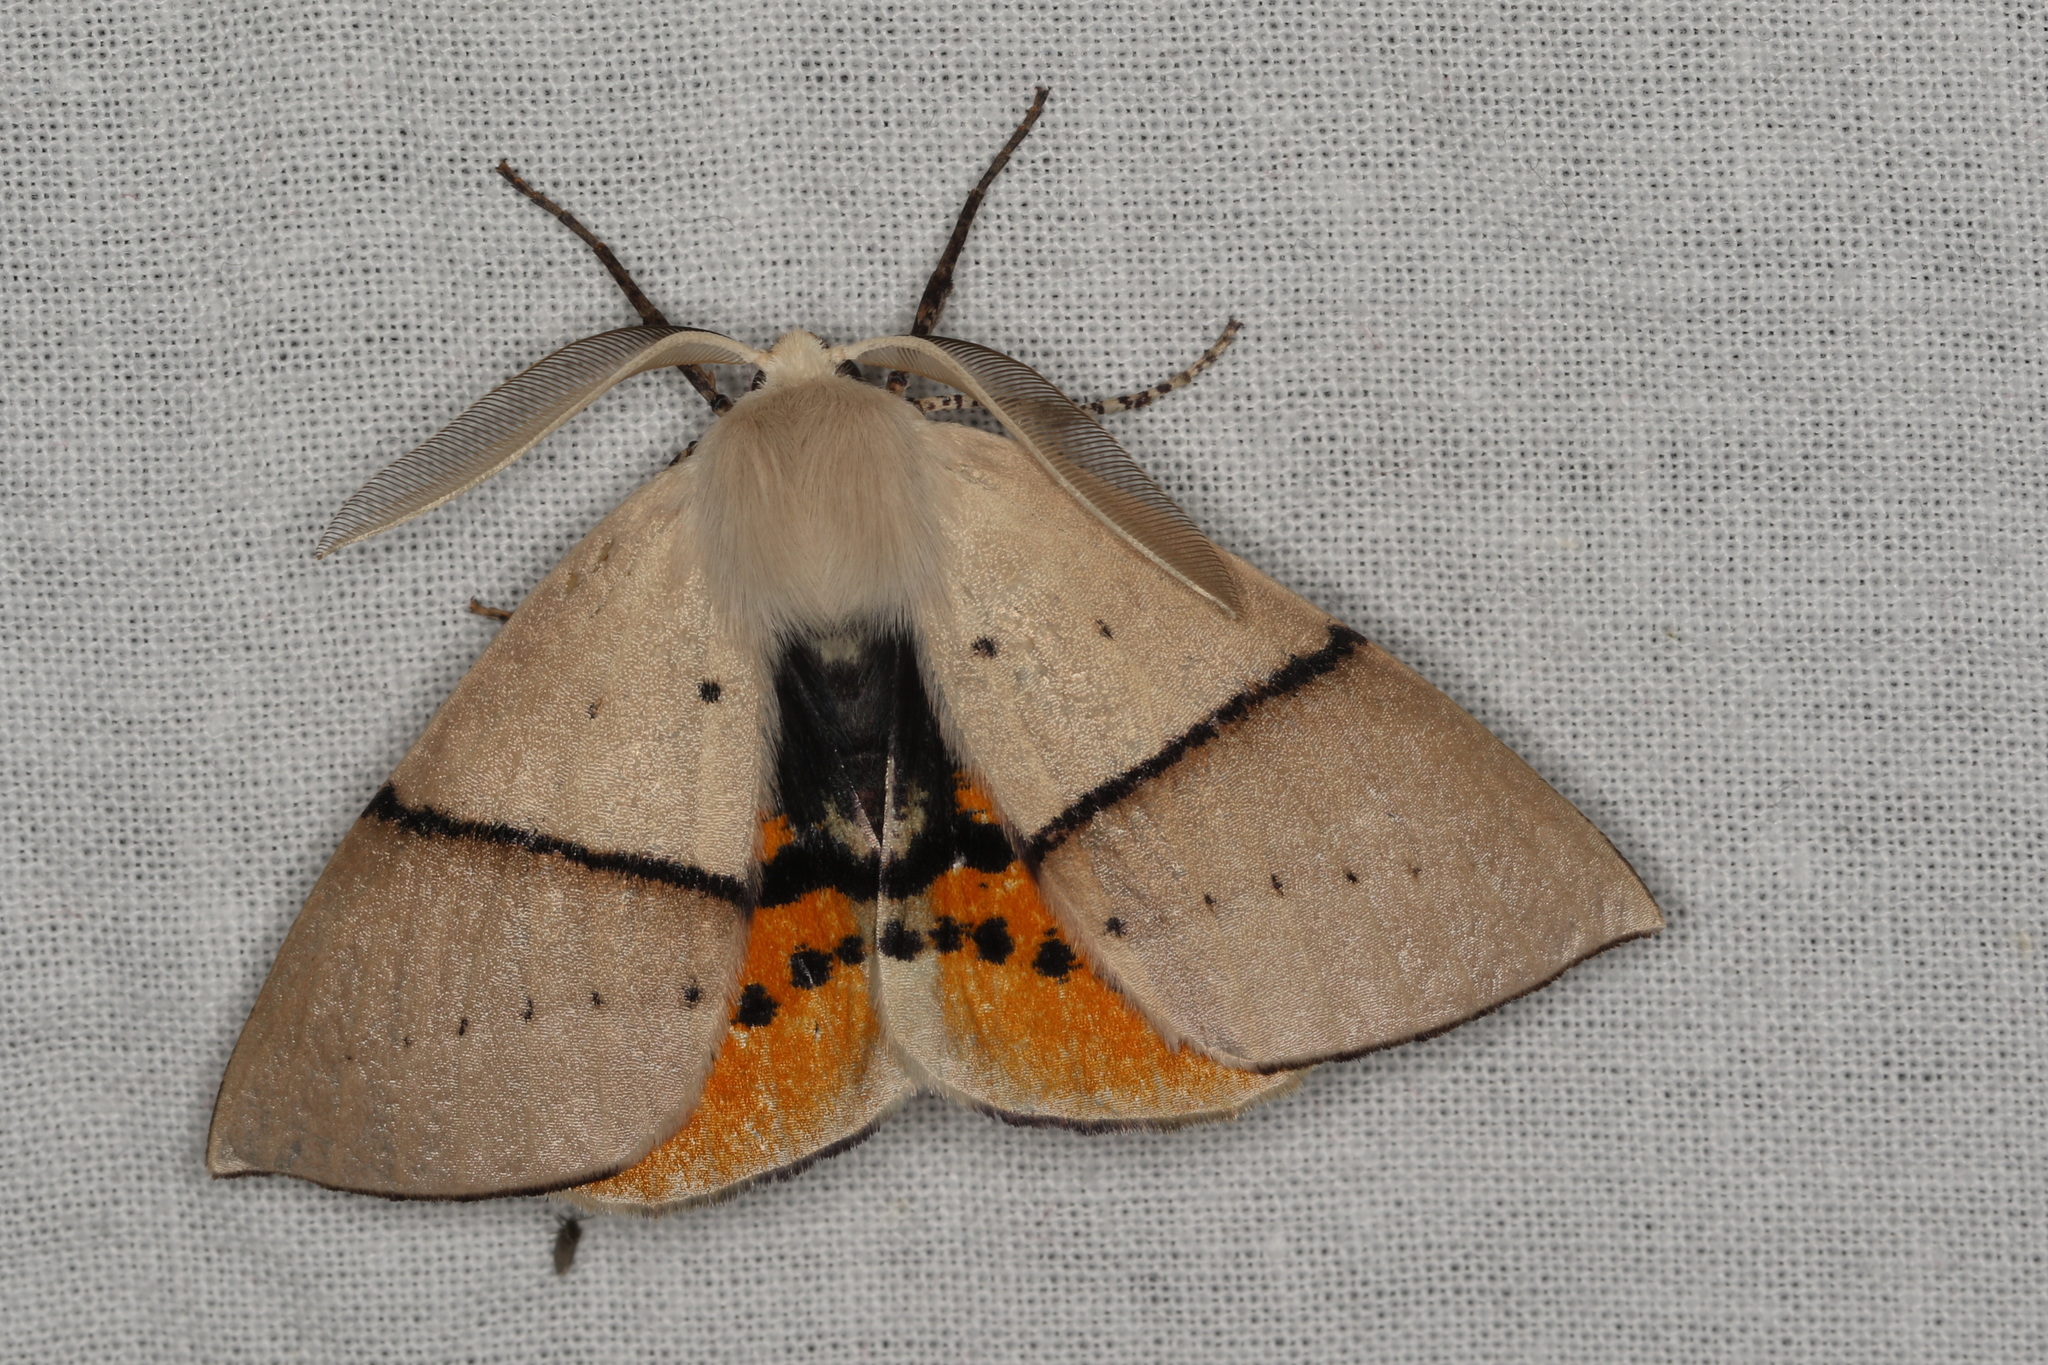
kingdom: Animalia
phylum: Arthropoda
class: Insecta
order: Lepidoptera
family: Geometridae
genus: Gastrophora
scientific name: Gastrophora henricaria
